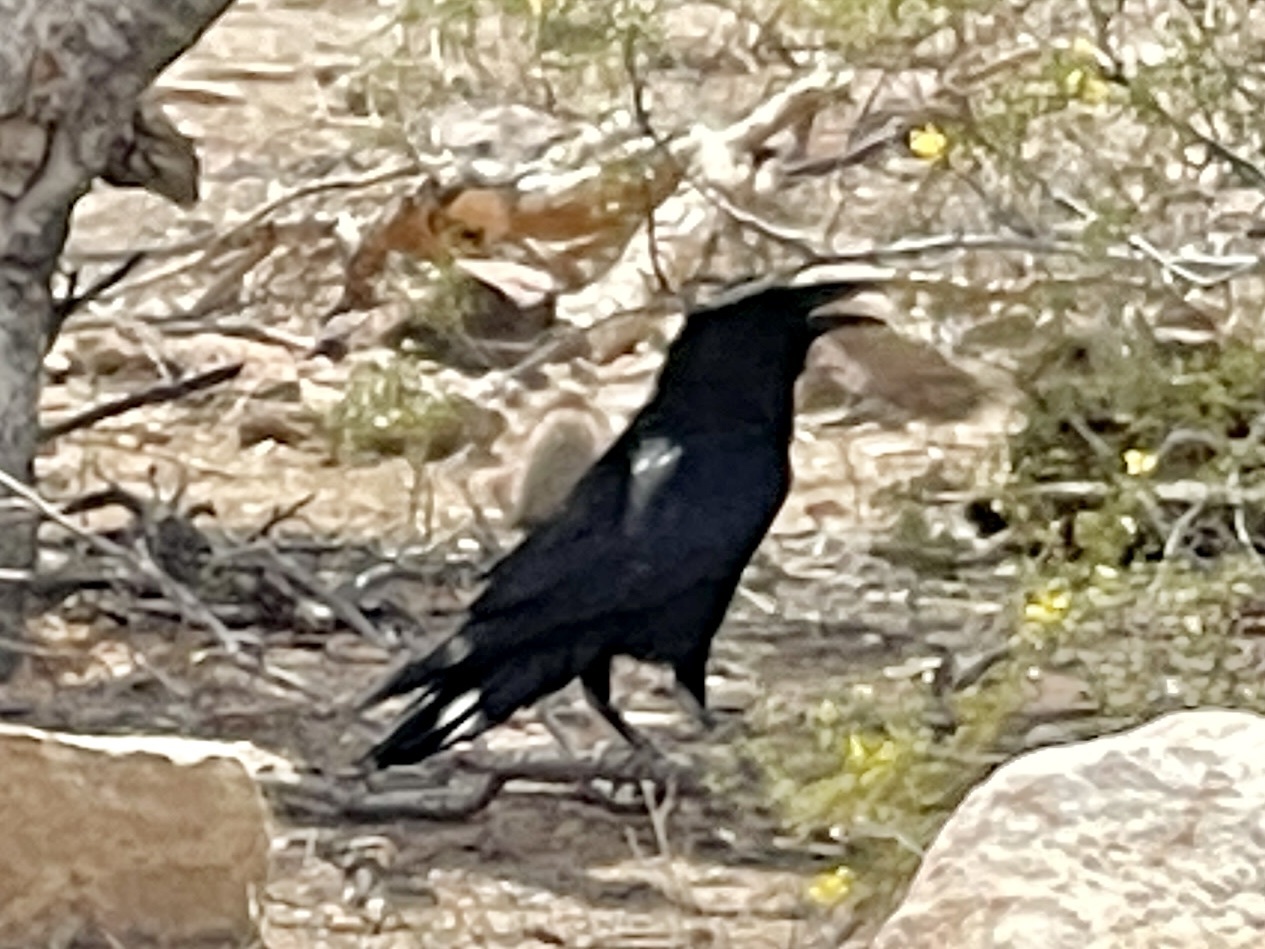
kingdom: Animalia
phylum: Chordata
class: Aves
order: Passeriformes
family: Corvidae
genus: Corvus
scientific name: Corvus corax
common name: Common raven
